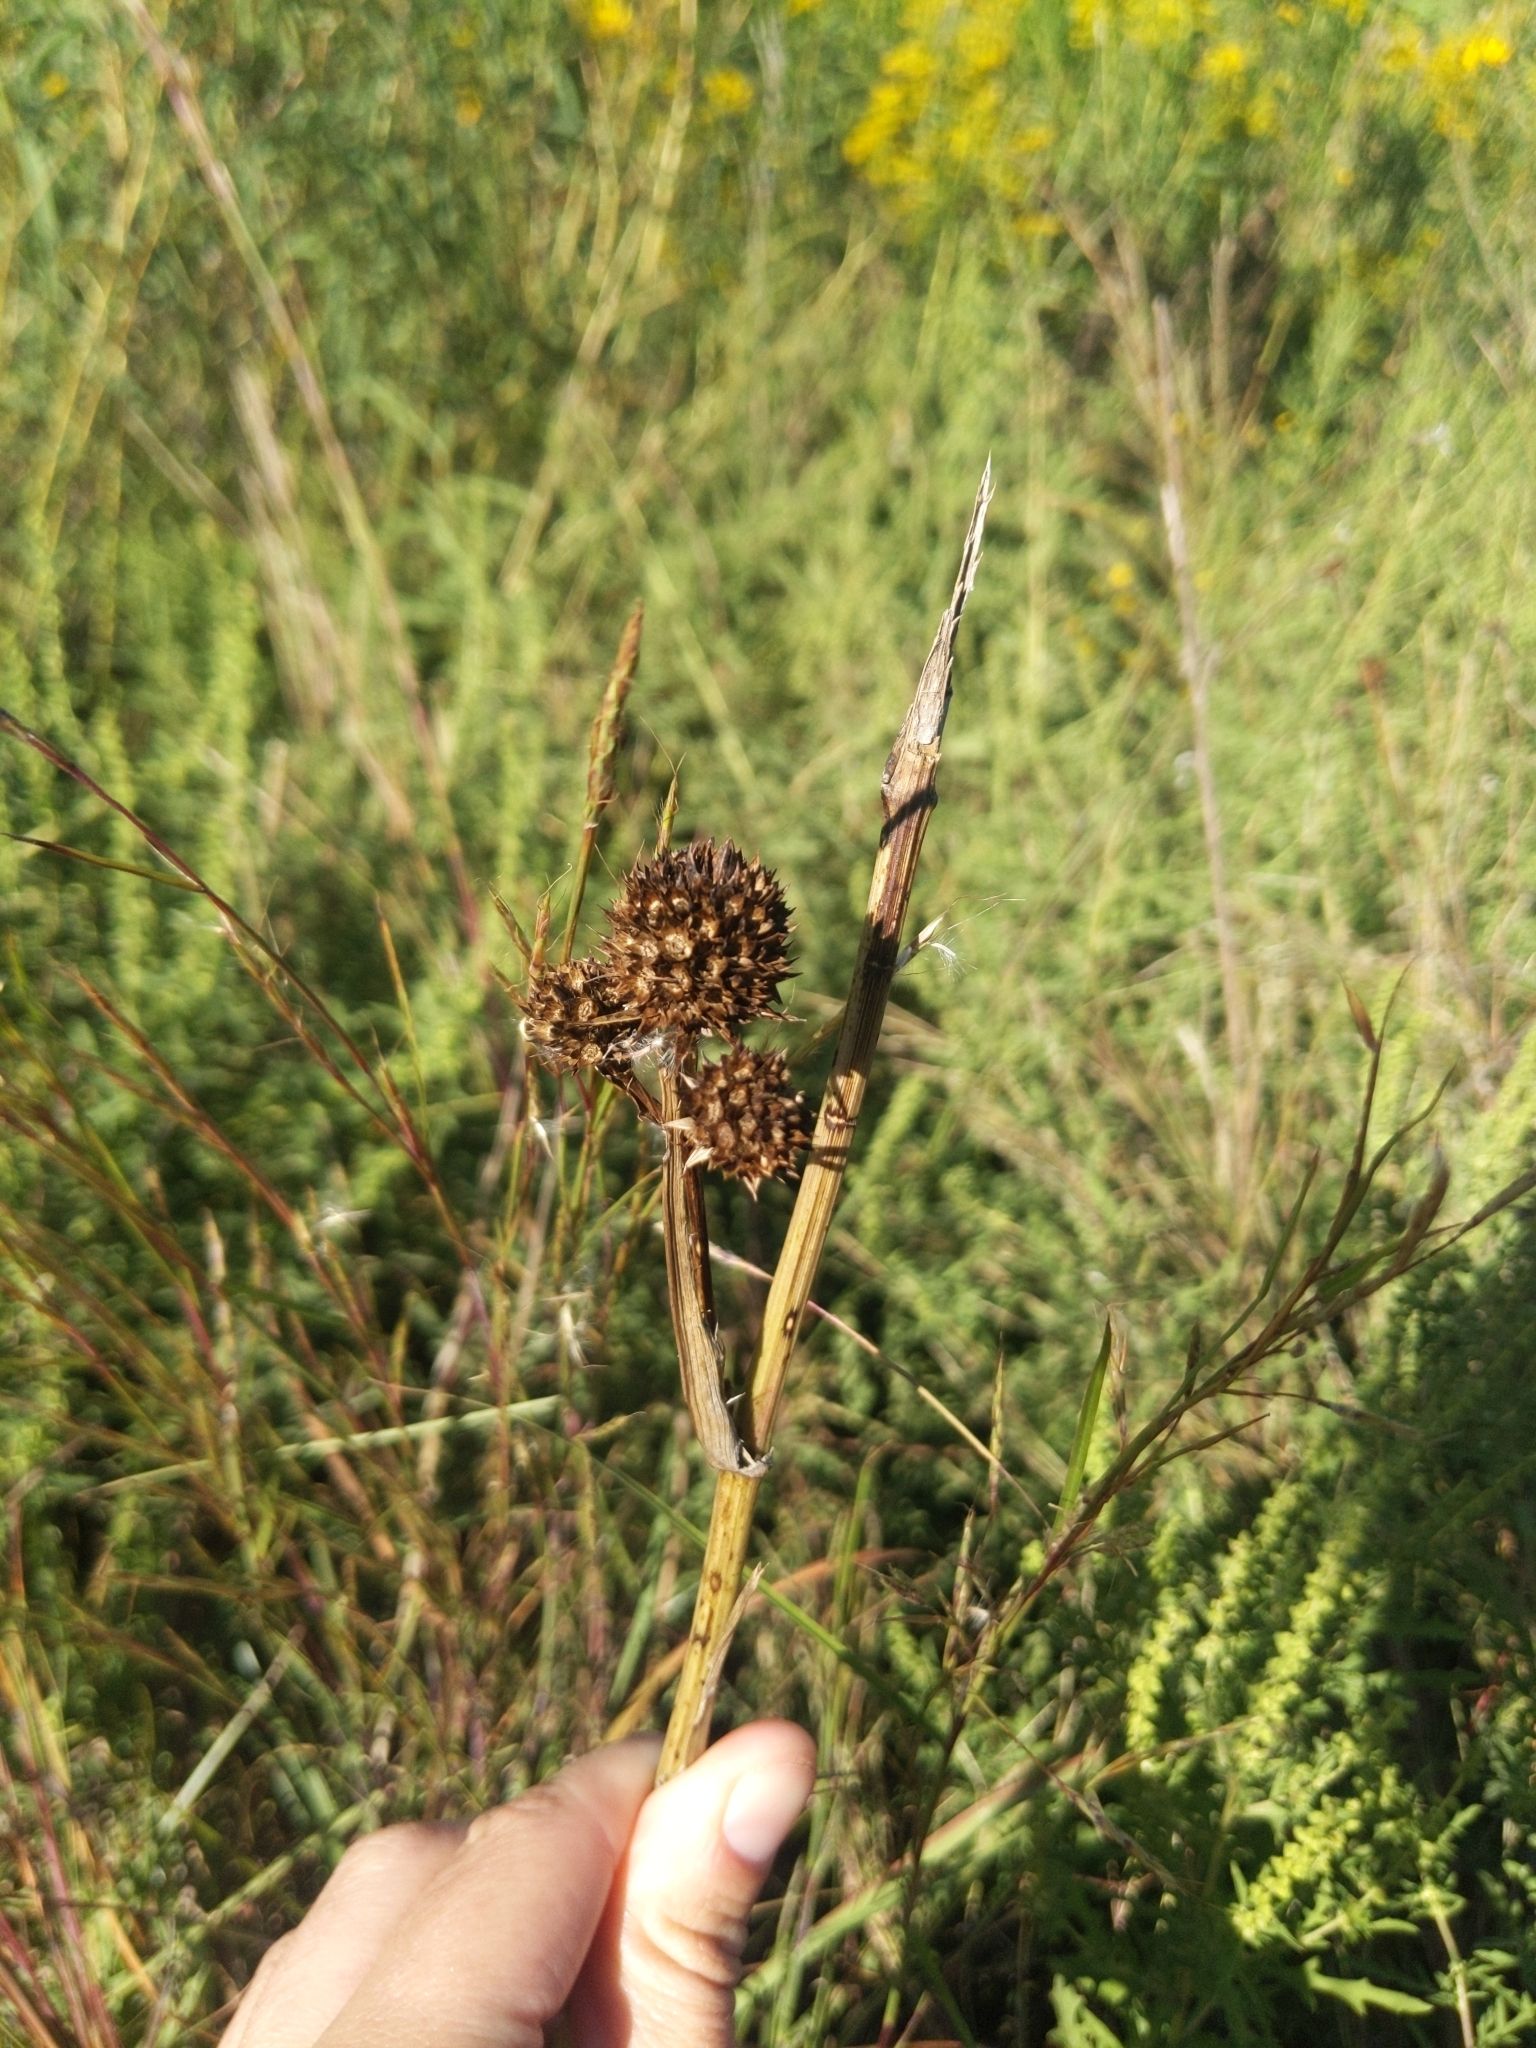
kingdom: Plantae
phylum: Tracheophyta
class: Magnoliopsida
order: Apiales
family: Apiaceae
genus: Eryngium
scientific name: Eryngium yuccifolium
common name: Button eryngo
